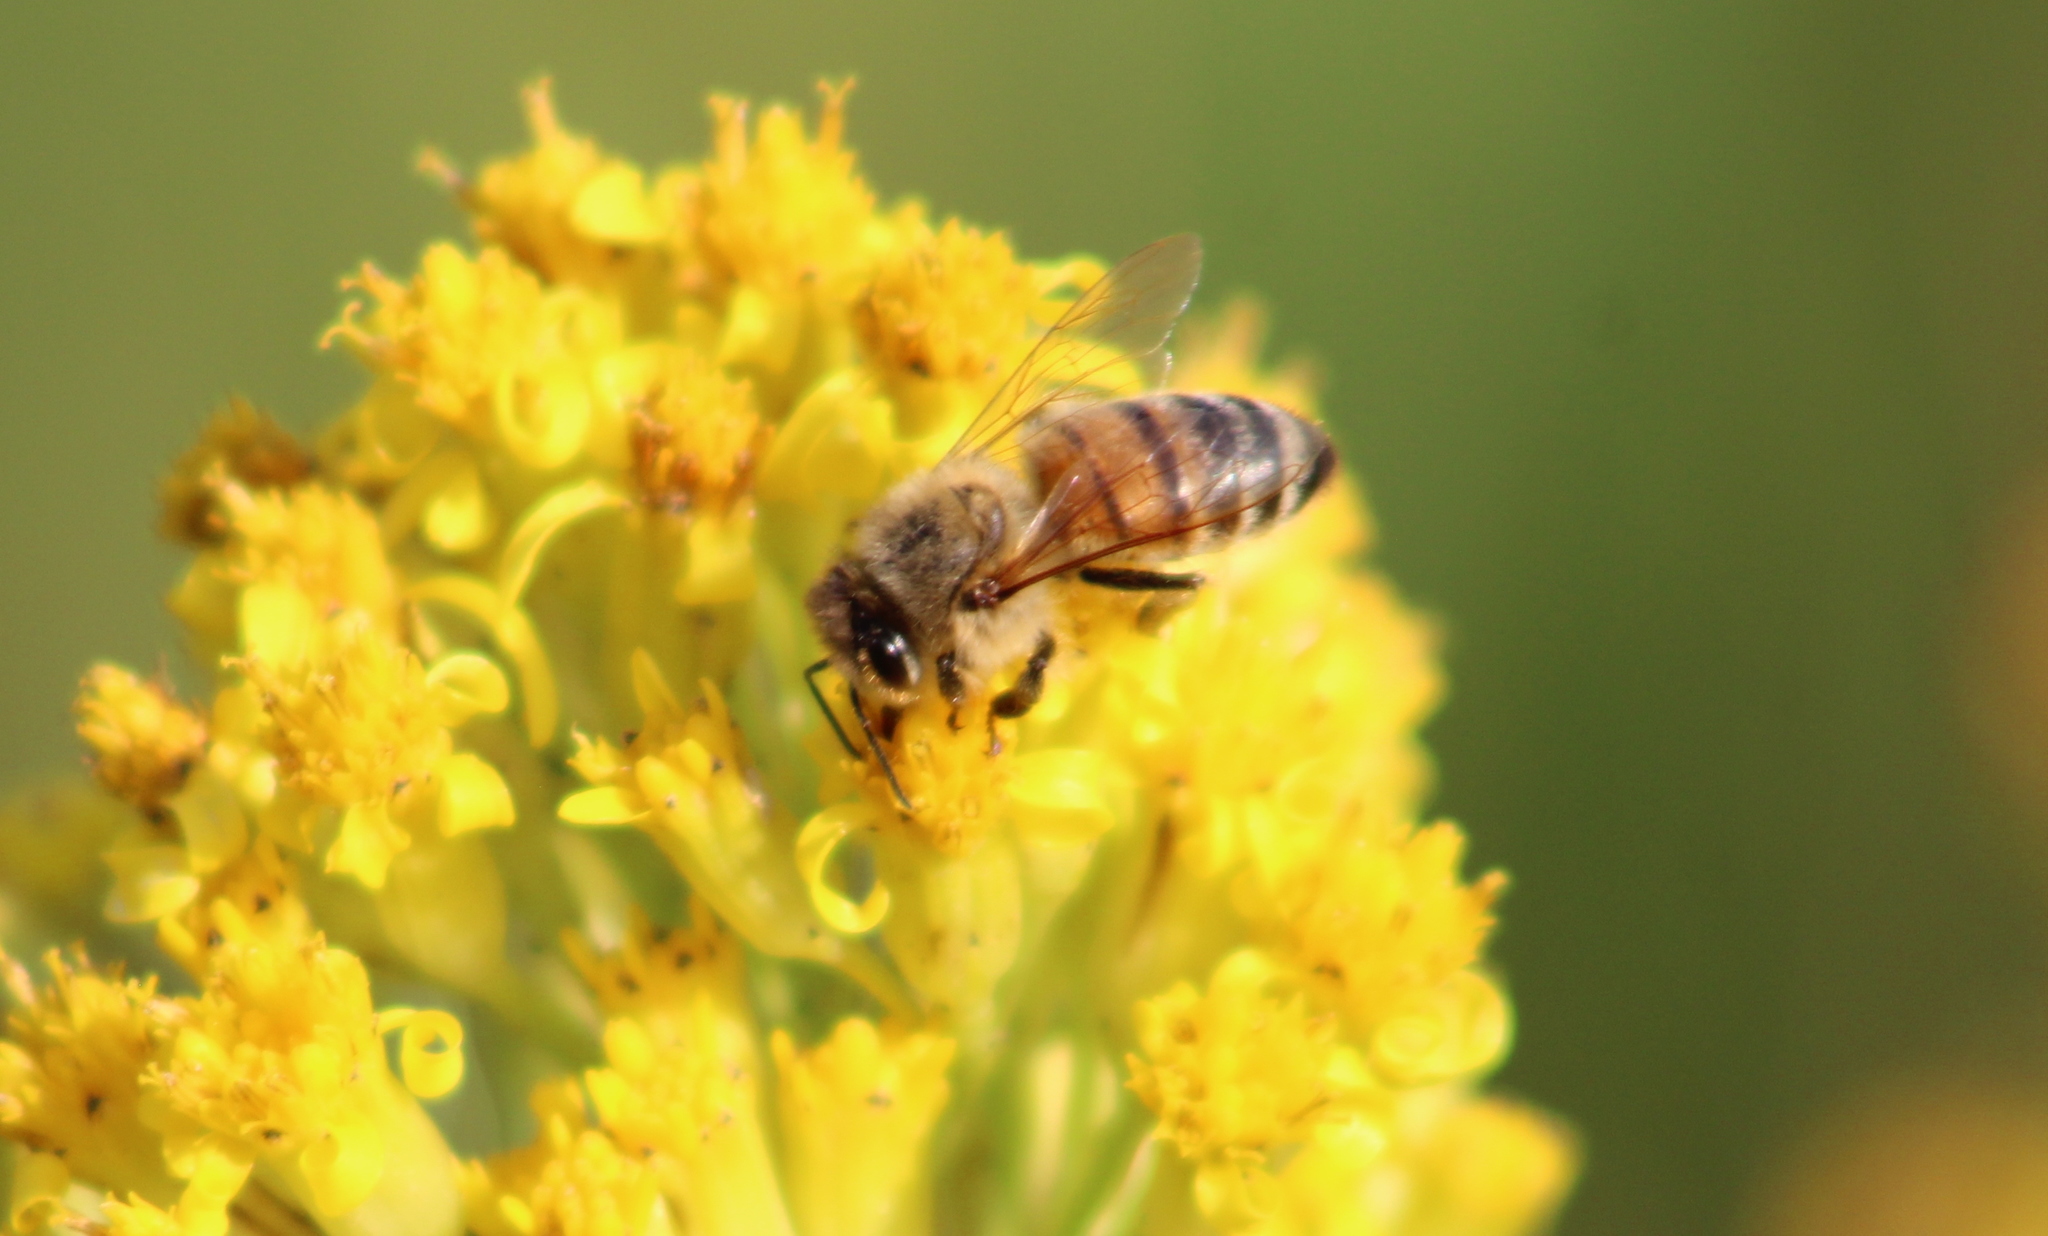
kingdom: Animalia
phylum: Arthropoda
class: Insecta
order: Hymenoptera
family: Apidae
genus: Apis
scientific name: Apis mellifera
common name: Honey bee
